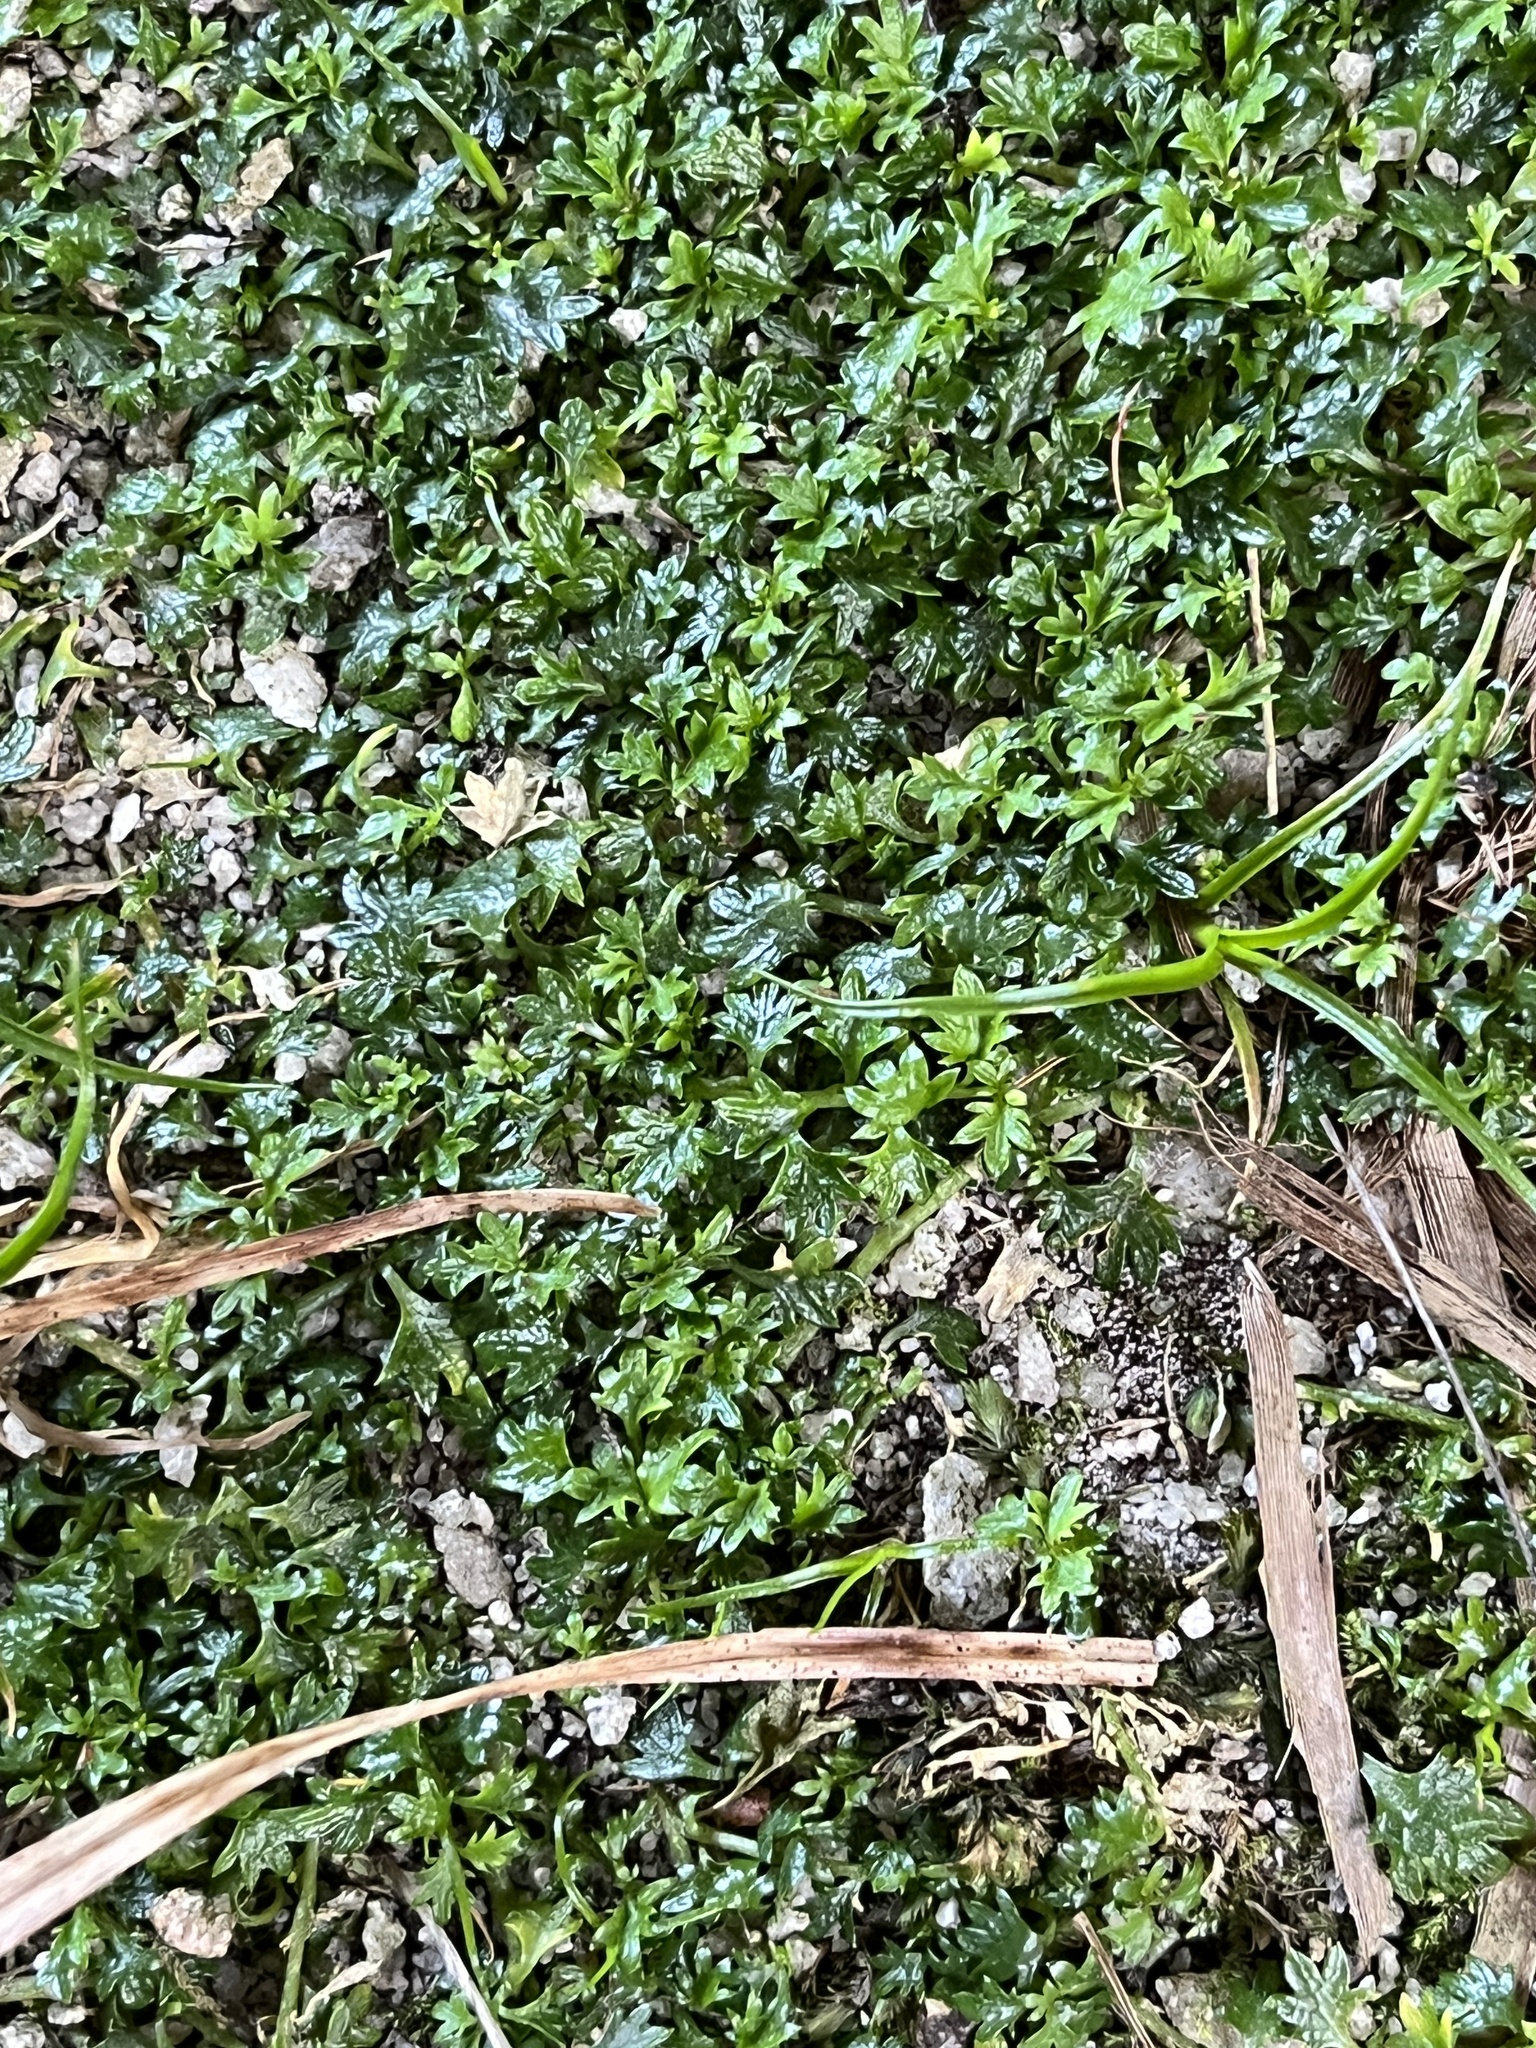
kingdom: Plantae
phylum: Tracheophyta
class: Magnoliopsida
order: Asterales
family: Campanulaceae
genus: Lobelia
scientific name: Lobelia muscoides
